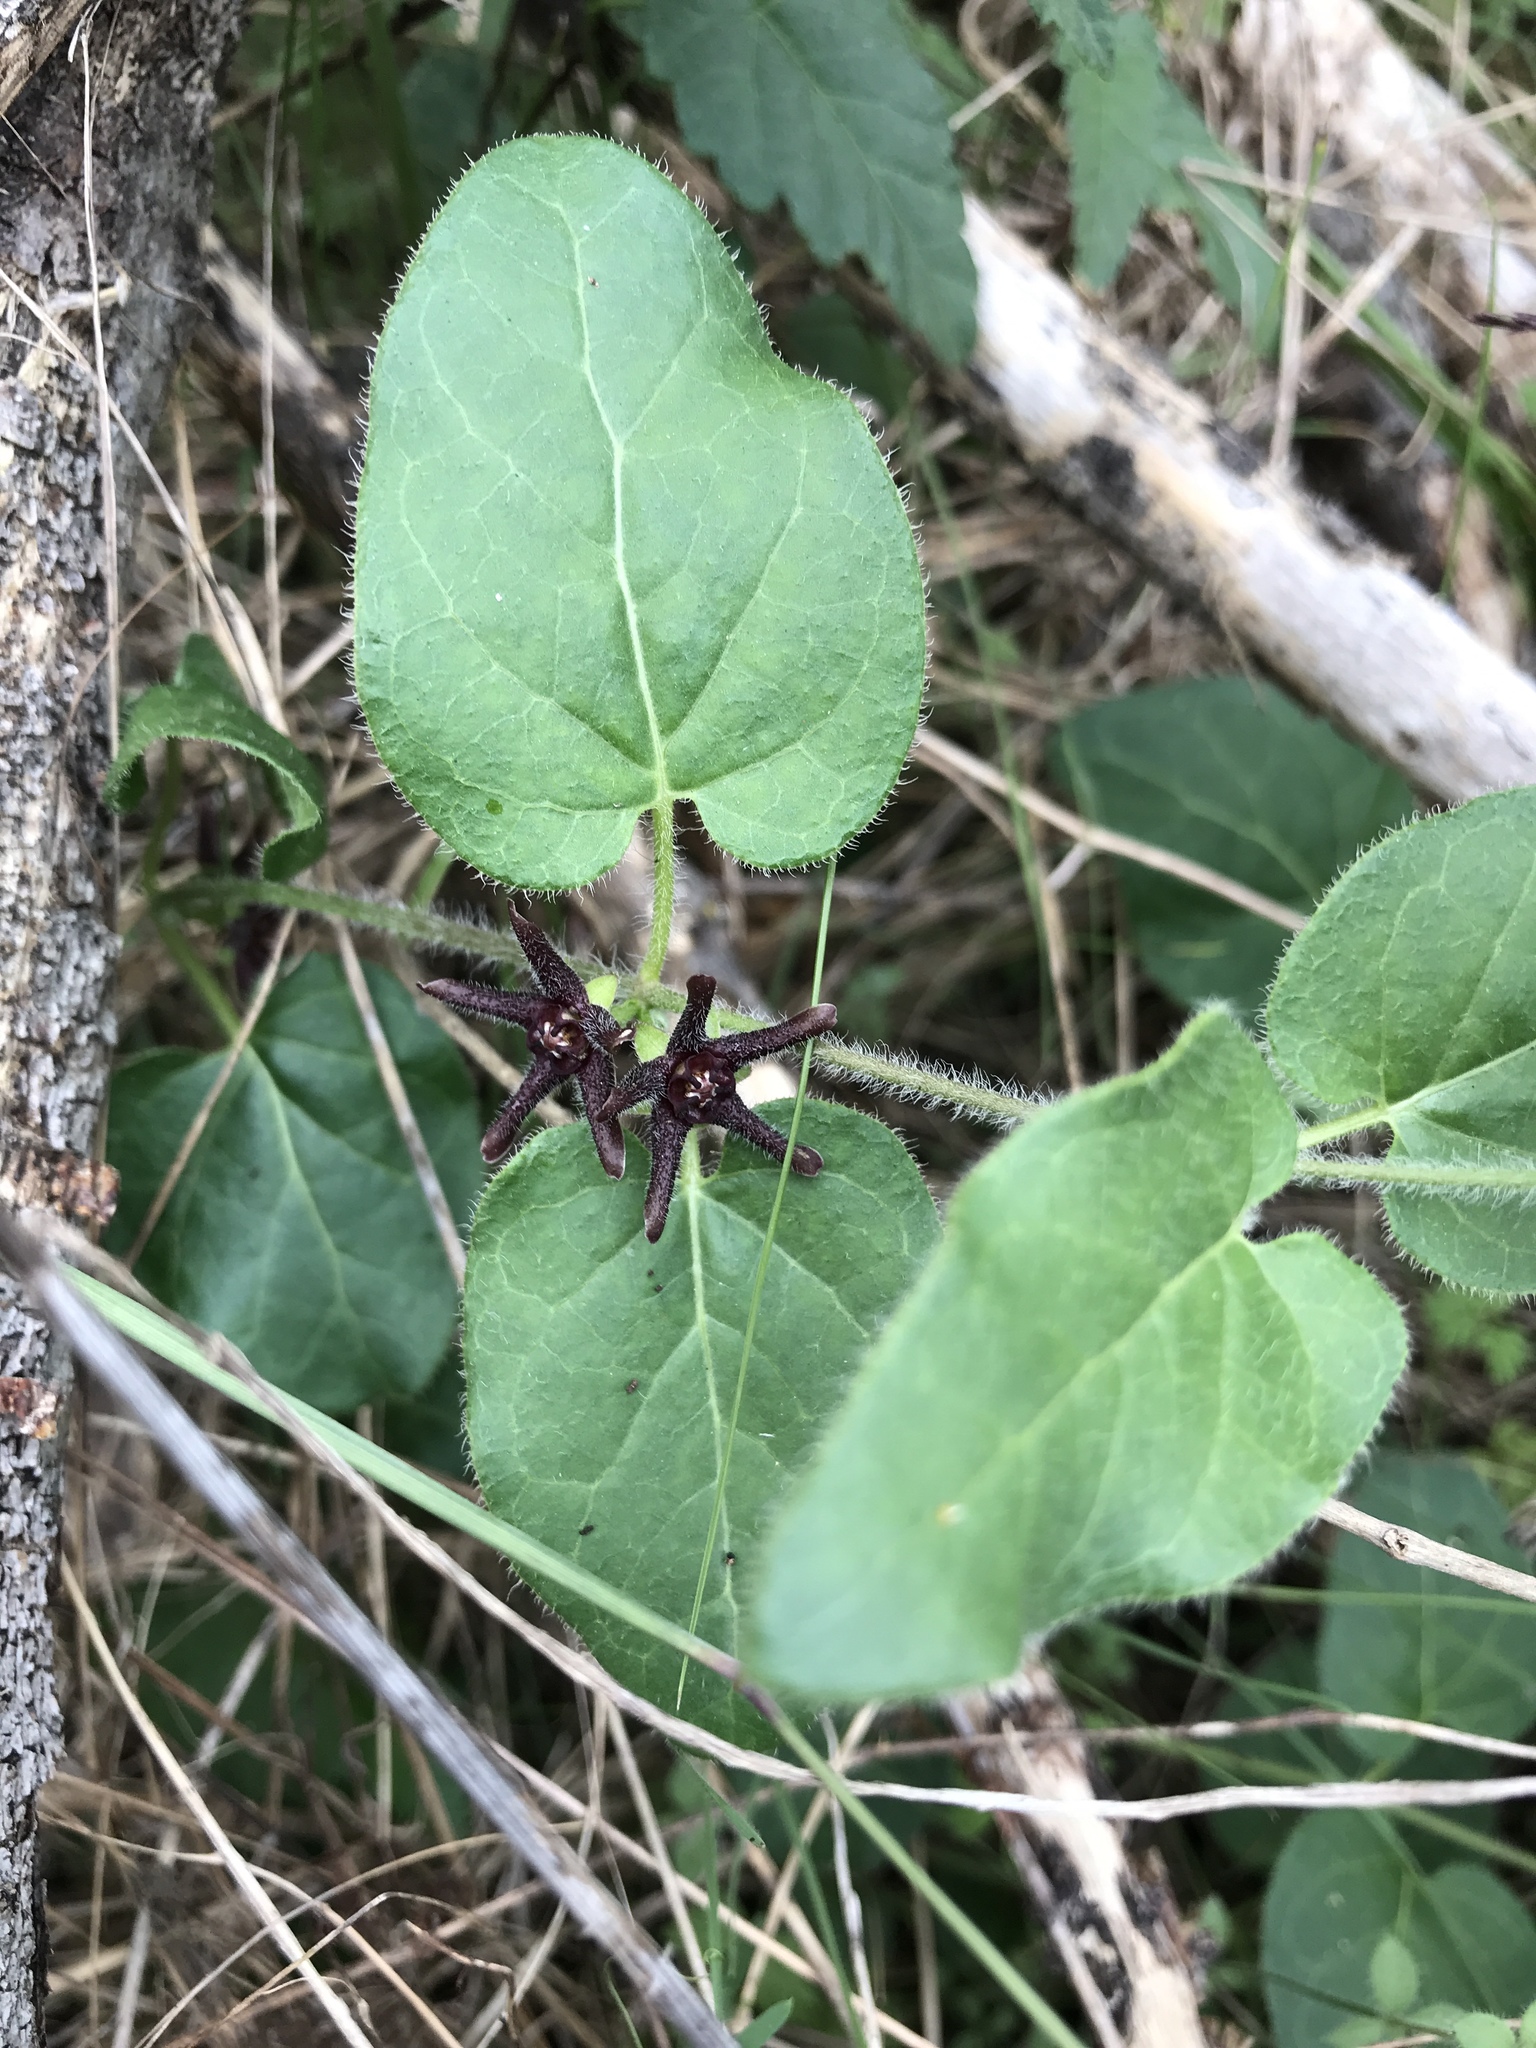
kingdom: Plantae
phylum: Tracheophyta
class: Magnoliopsida
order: Gentianales
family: Apocynaceae
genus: Chthamalia
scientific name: Chthamalia biflora
